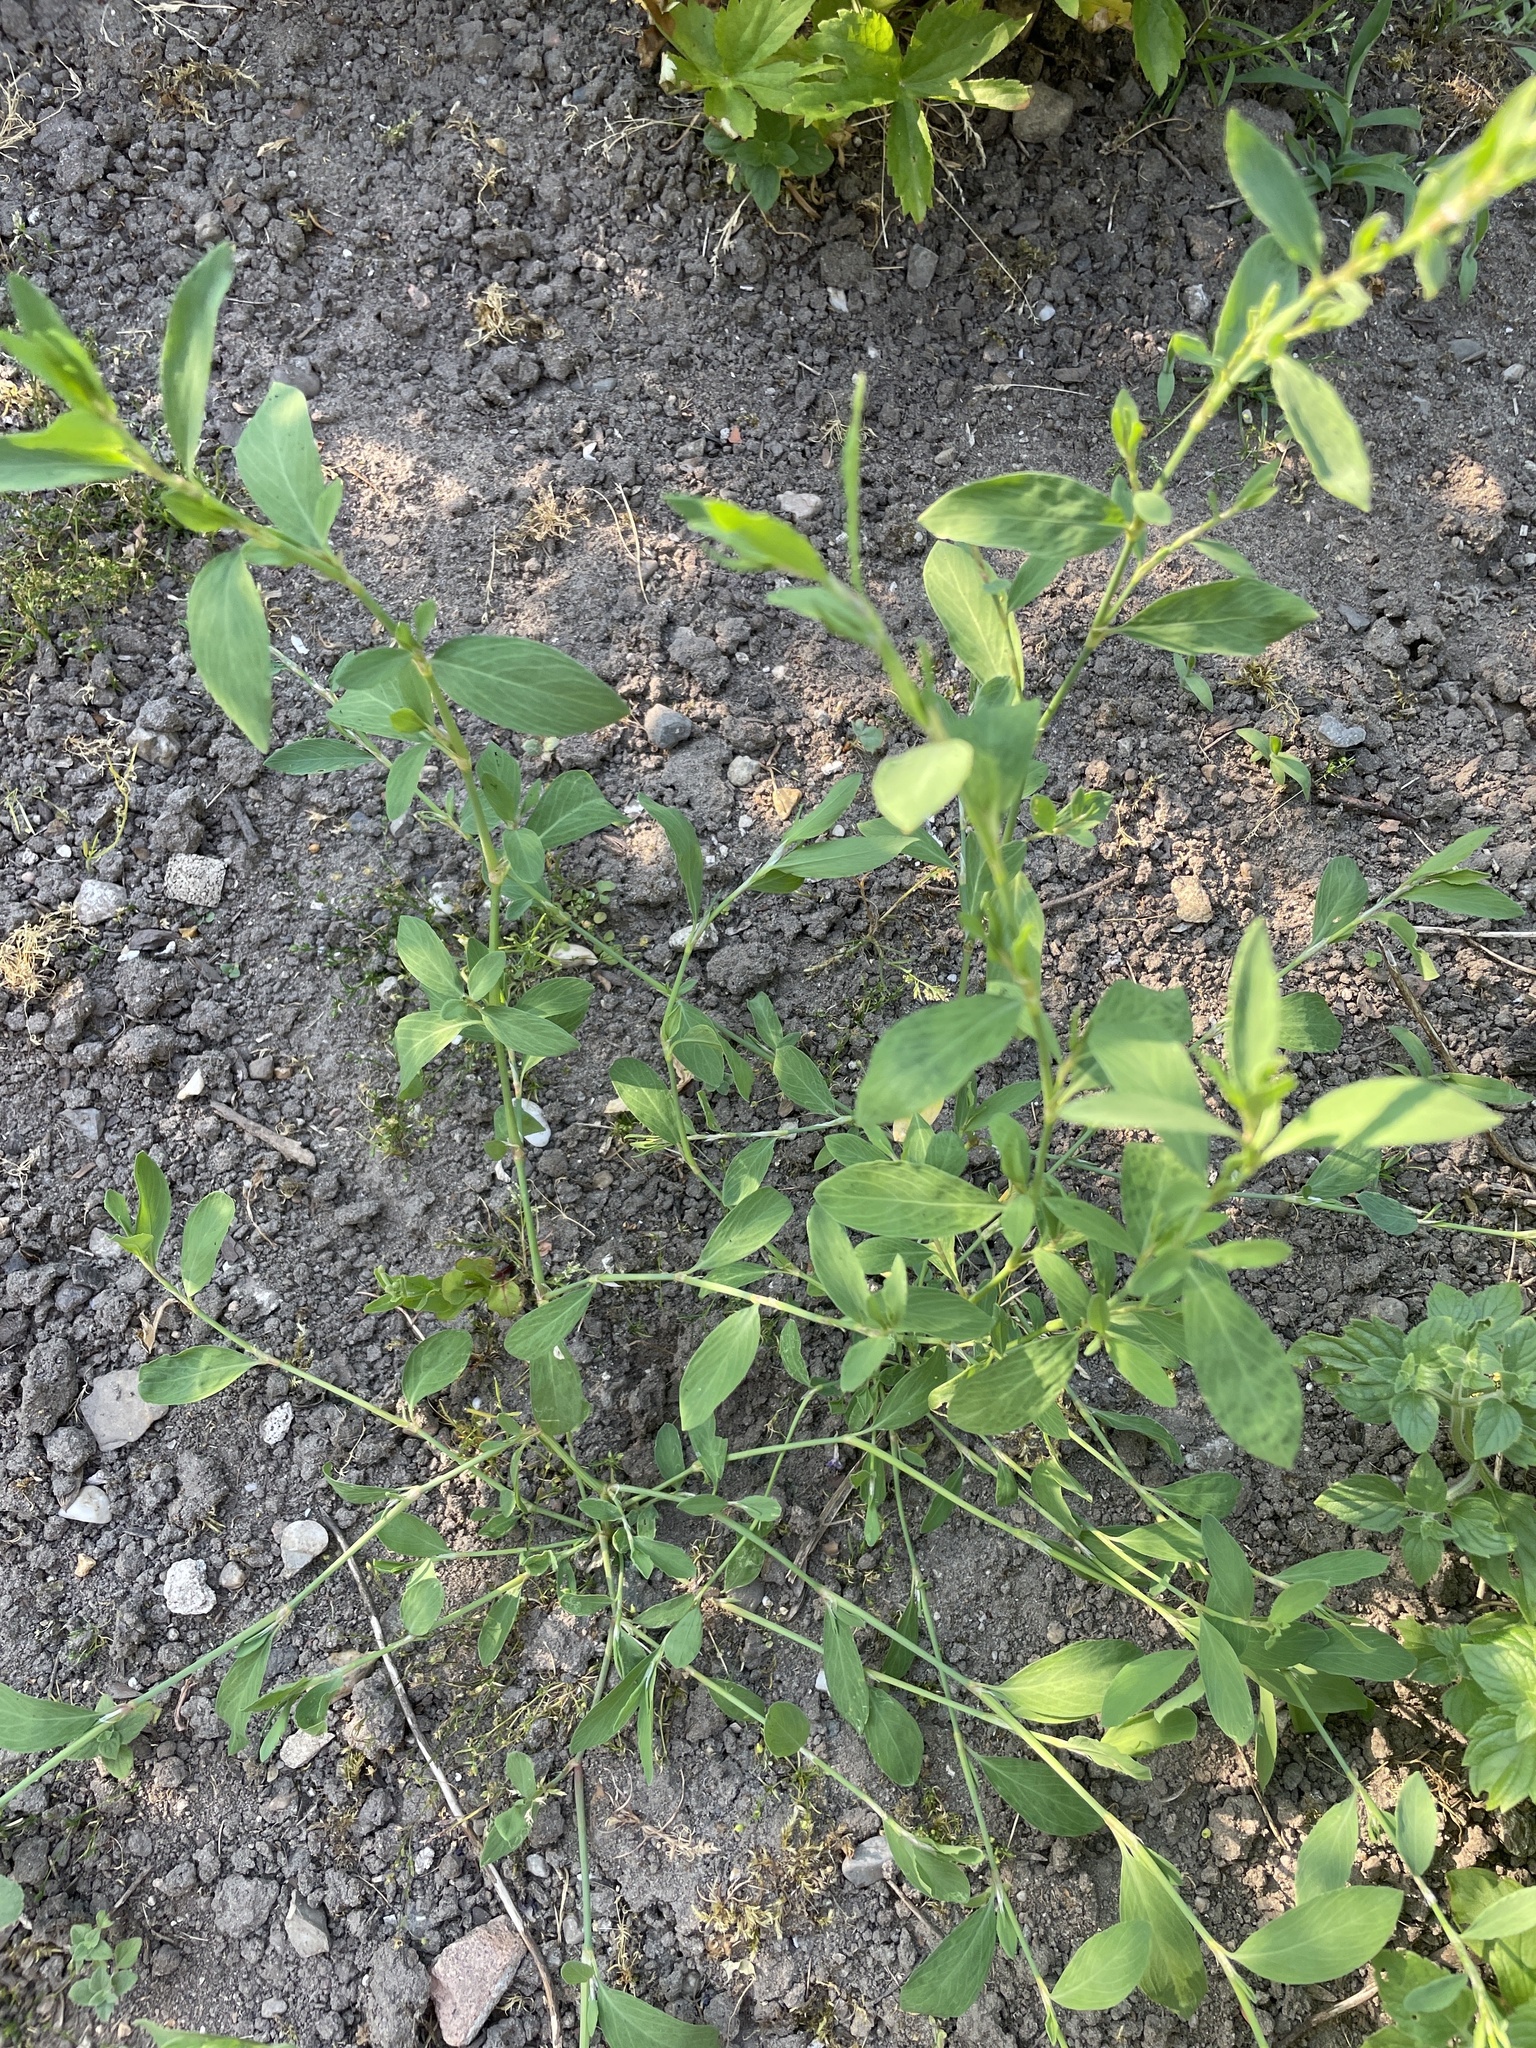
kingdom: Plantae
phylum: Tracheophyta
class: Magnoliopsida
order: Caryophyllales
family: Polygonaceae
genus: Polygonum
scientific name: Polygonum aviculare
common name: Prostrate knotweed
